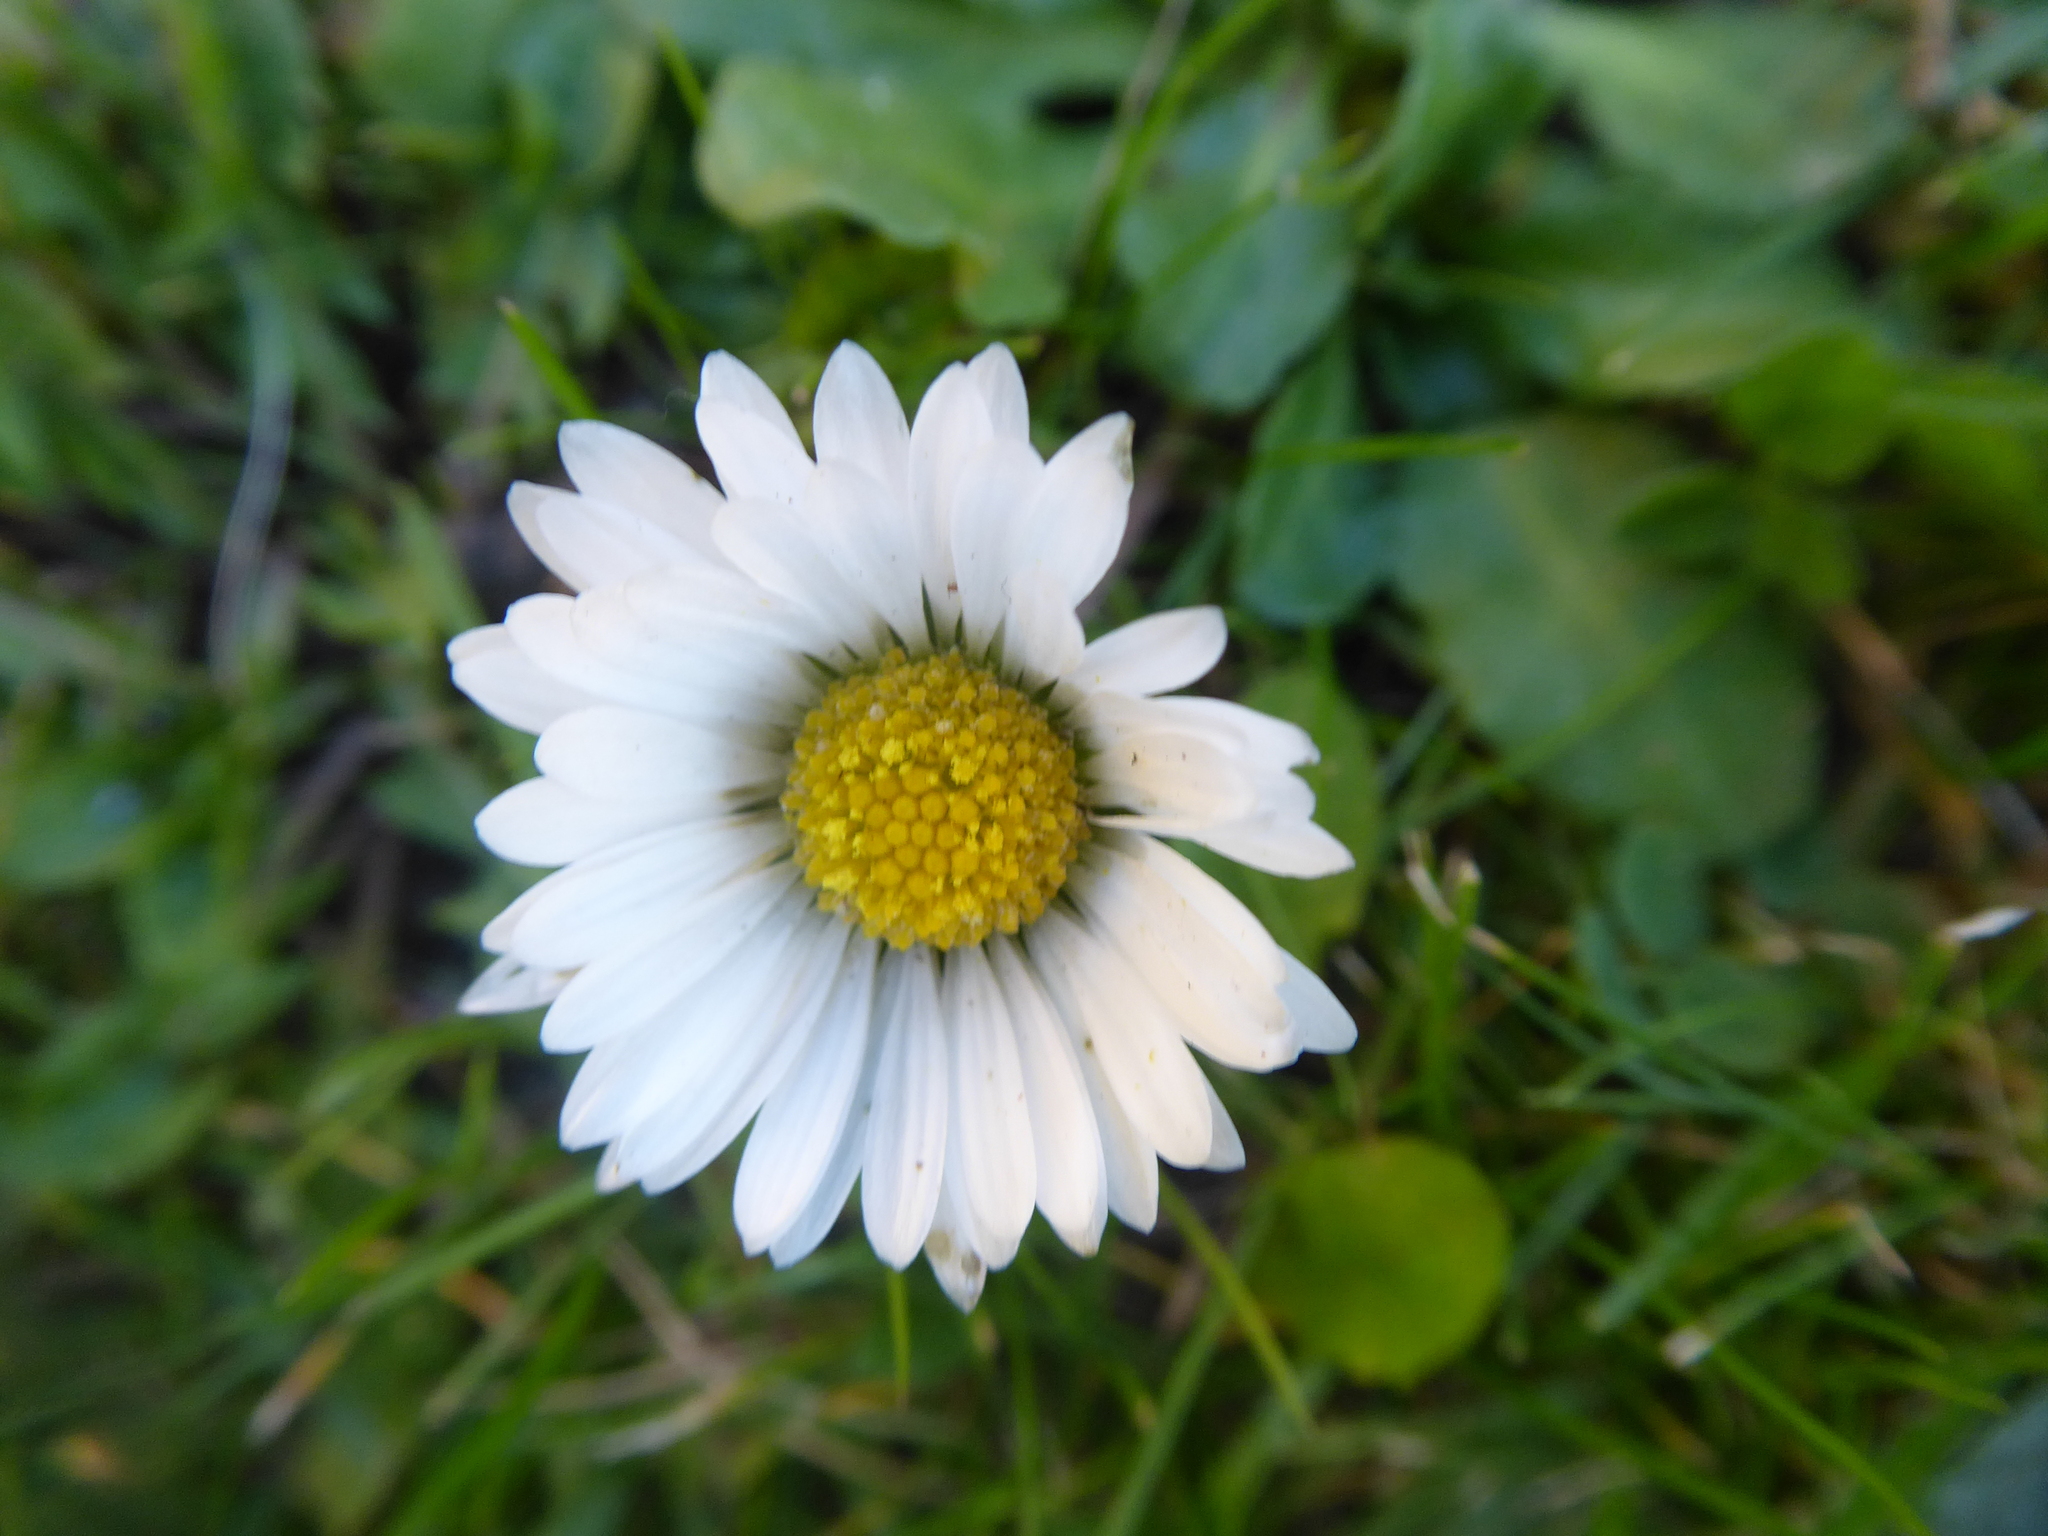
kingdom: Plantae
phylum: Tracheophyta
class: Magnoliopsida
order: Asterales
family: Asteraceae
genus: Bellis
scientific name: Bellis perennis
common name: Lawndaisy
